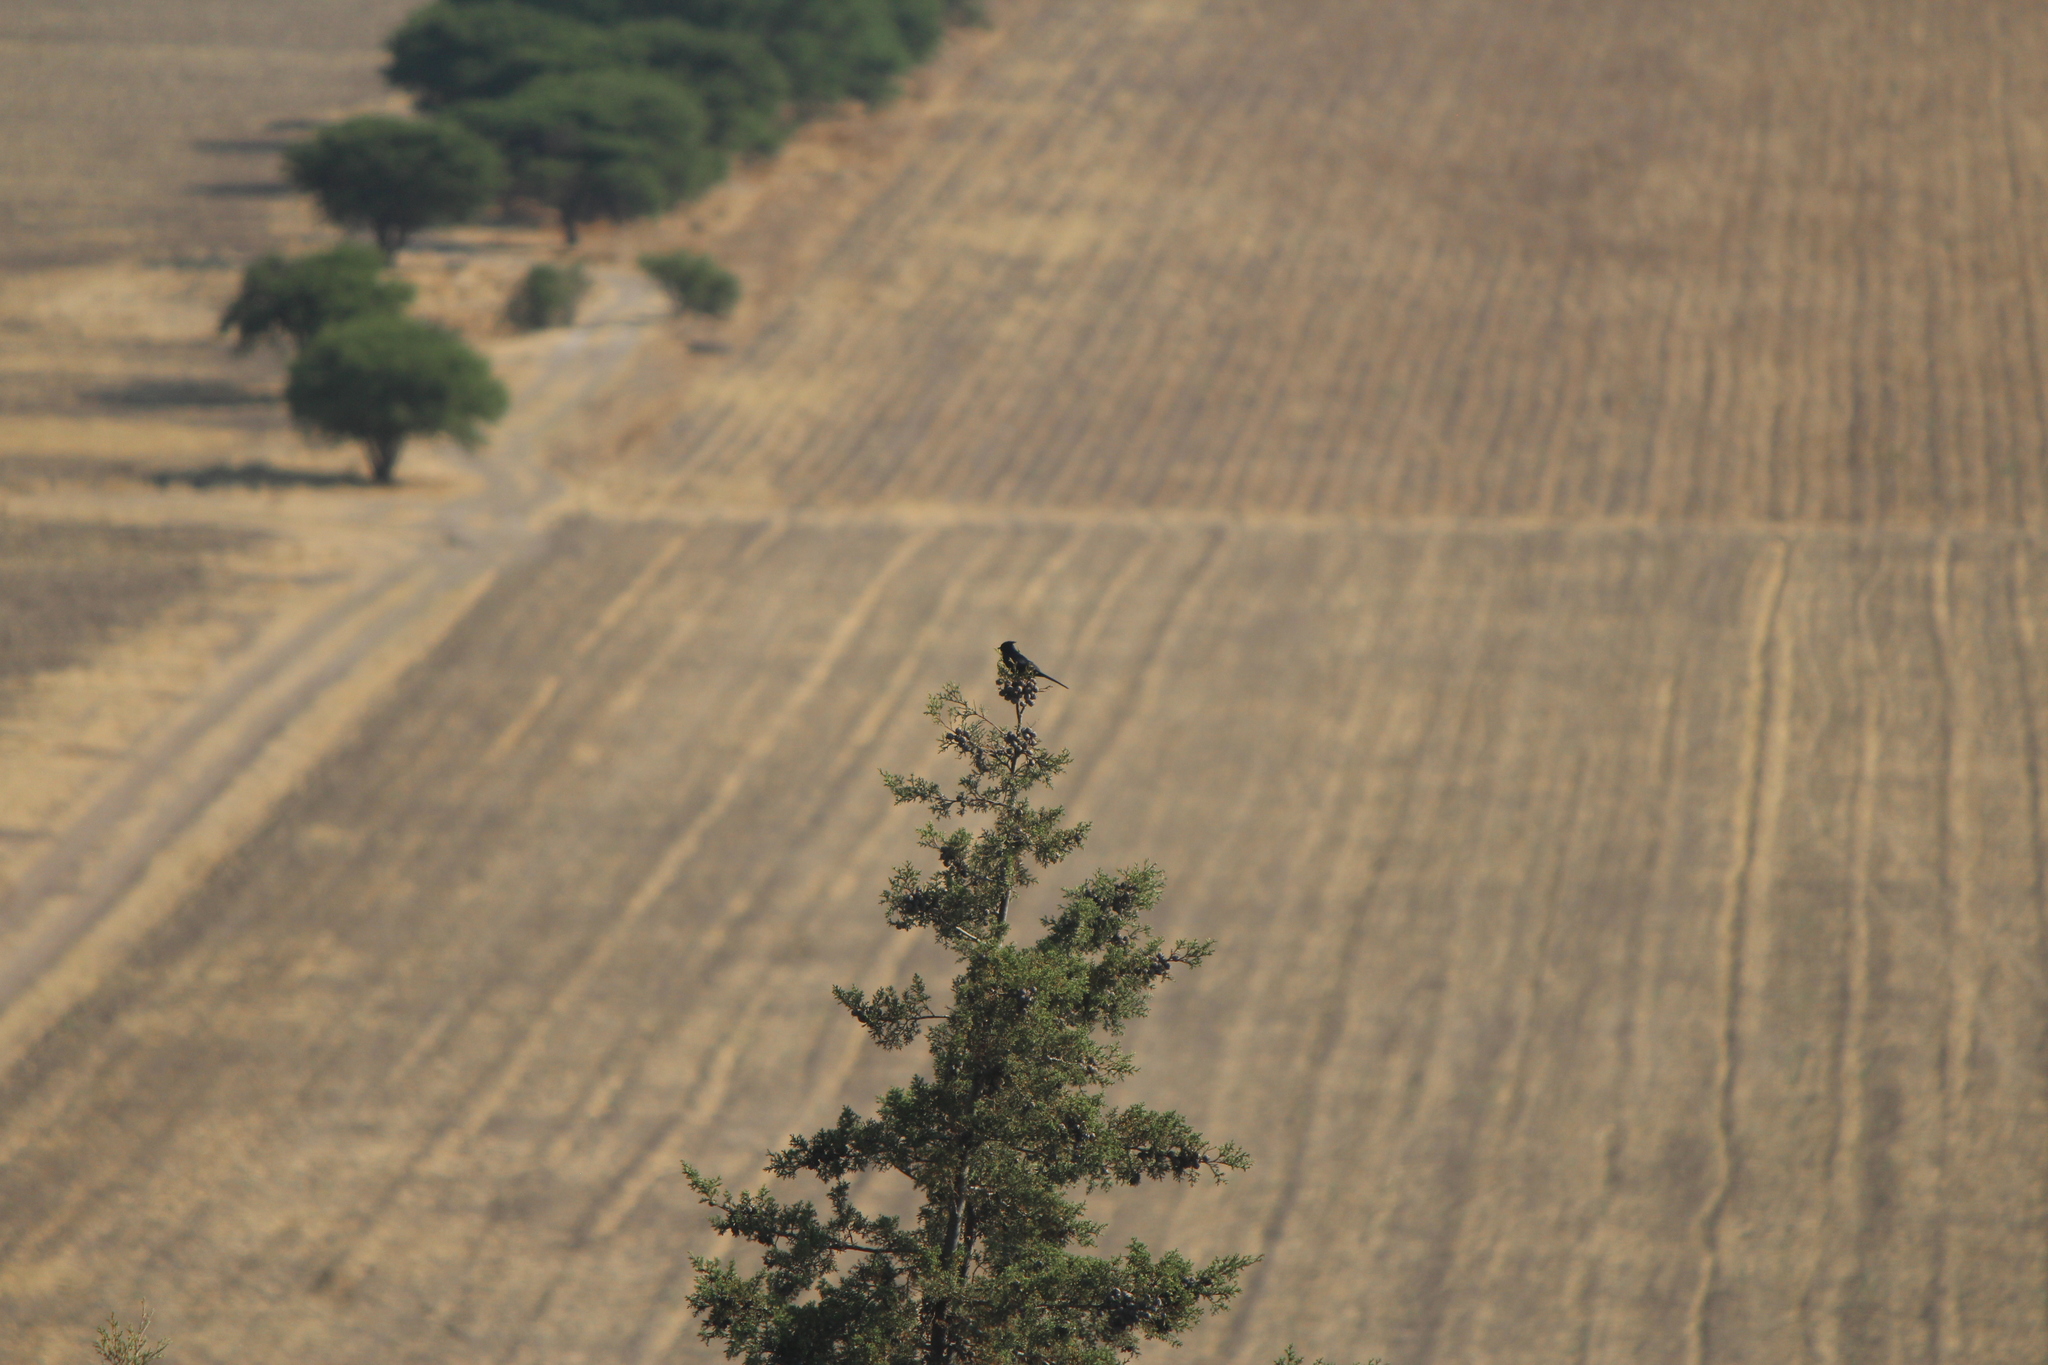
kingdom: Animalia
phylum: Chordata
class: Aves
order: Passeriformes
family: Ptilogonatidae
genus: Phainopepla
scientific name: Phainopepla nitens
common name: Phainopepla
